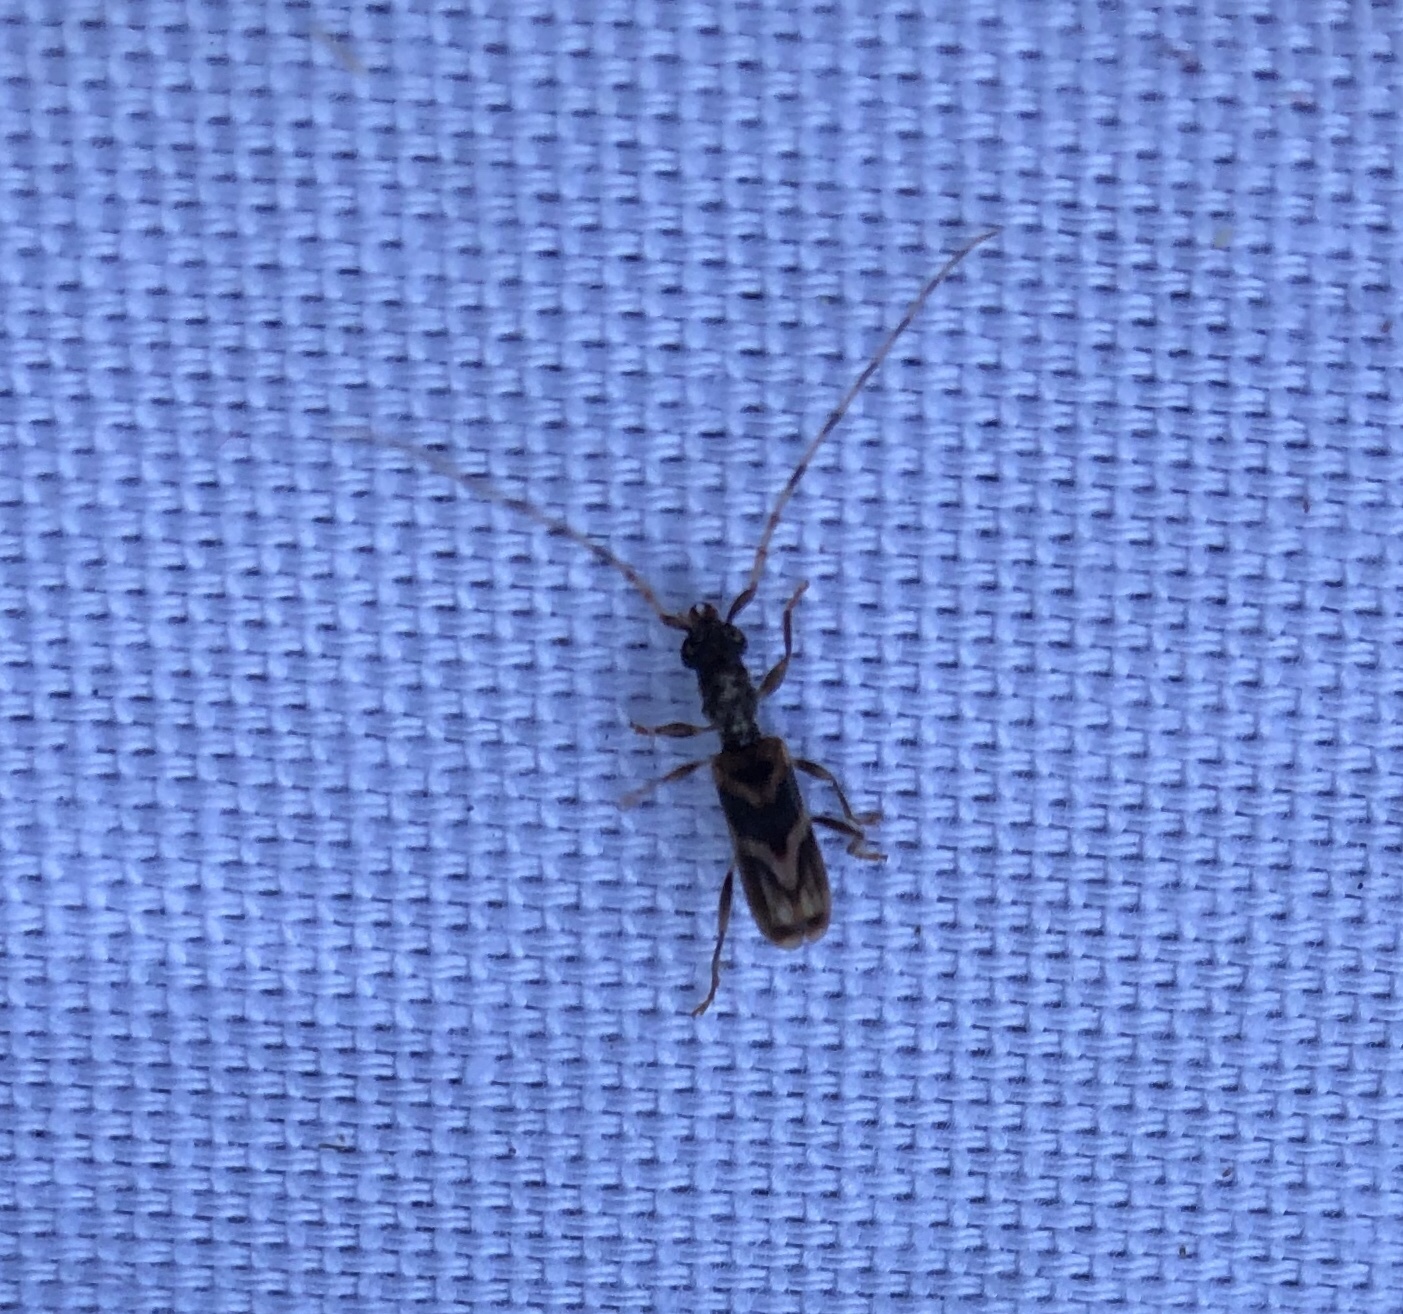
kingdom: Animalia
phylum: Arthropoda
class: Insecta
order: Coleoptera
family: Cerambycidae
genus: Stenhomalus
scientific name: Stenhomalus taiwanus
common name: Taiwan slender longhorned beetle
